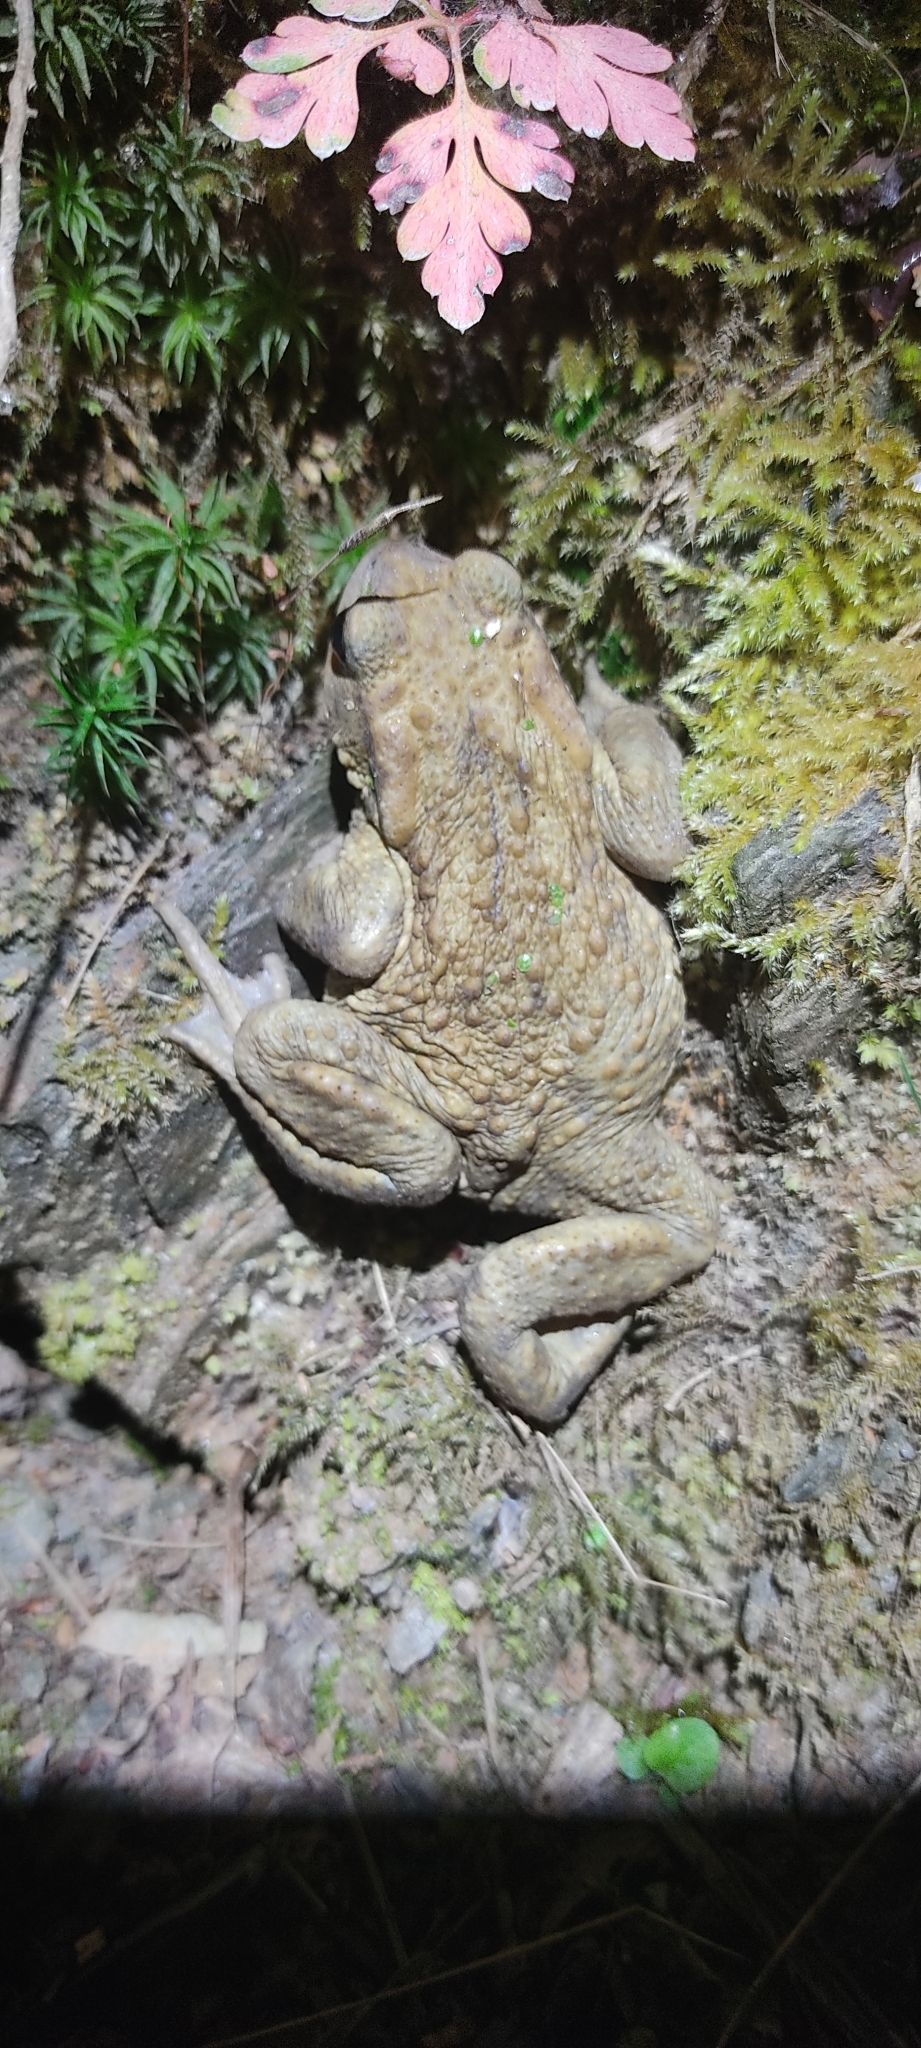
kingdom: Animalia
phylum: Chordata
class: Amphibia
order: Anura
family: Bufonidae
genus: Bufo
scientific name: Bufo spinosus
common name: Western common toad
